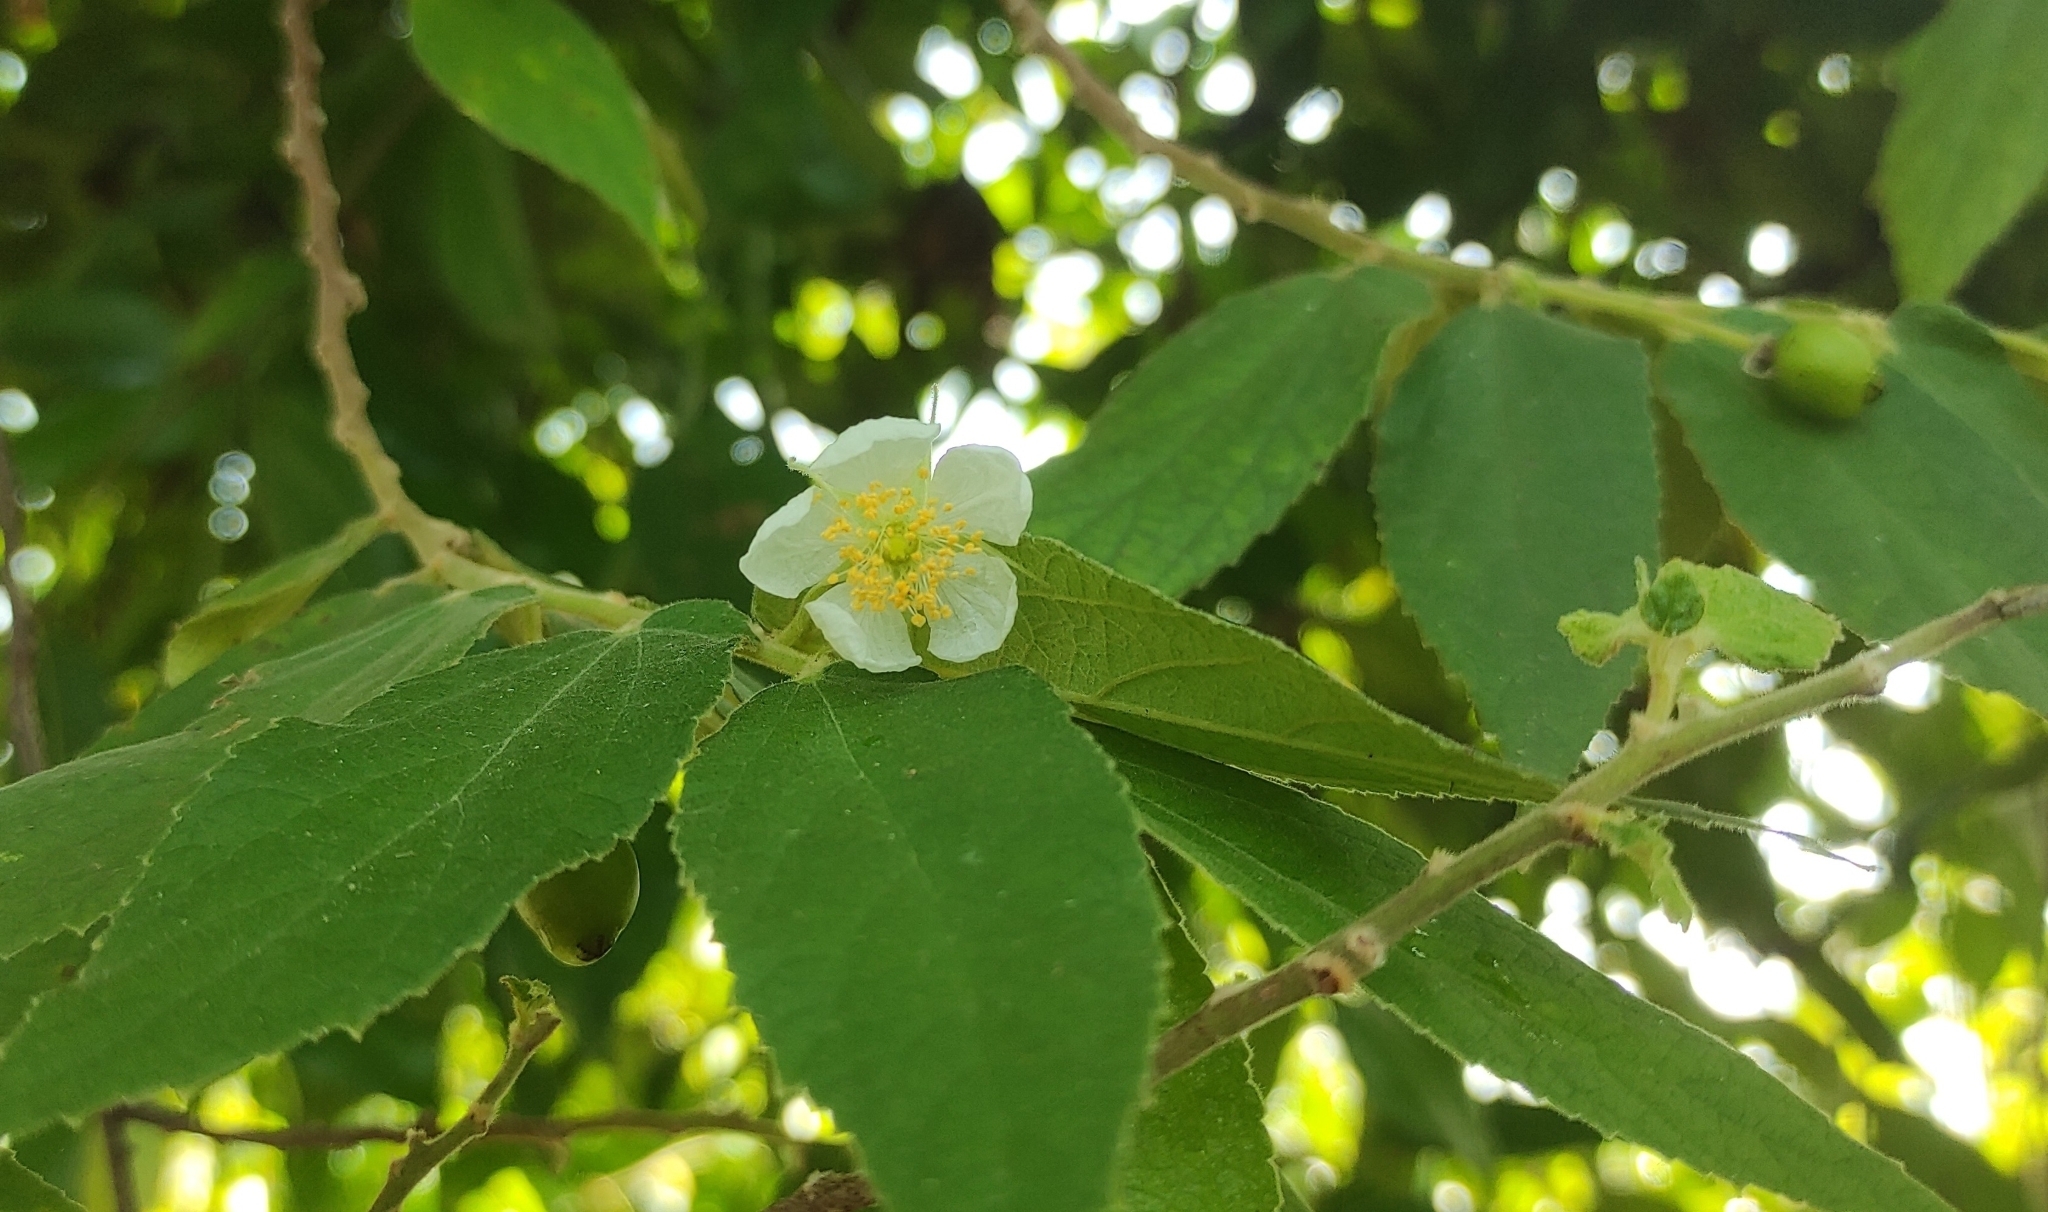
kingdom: Plantae
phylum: Tracheophyta
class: Magnoliopsida
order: Malvales
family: Muntingiaceae
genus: Muntingia
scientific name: Muntingia calabura
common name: Strawberrytree
